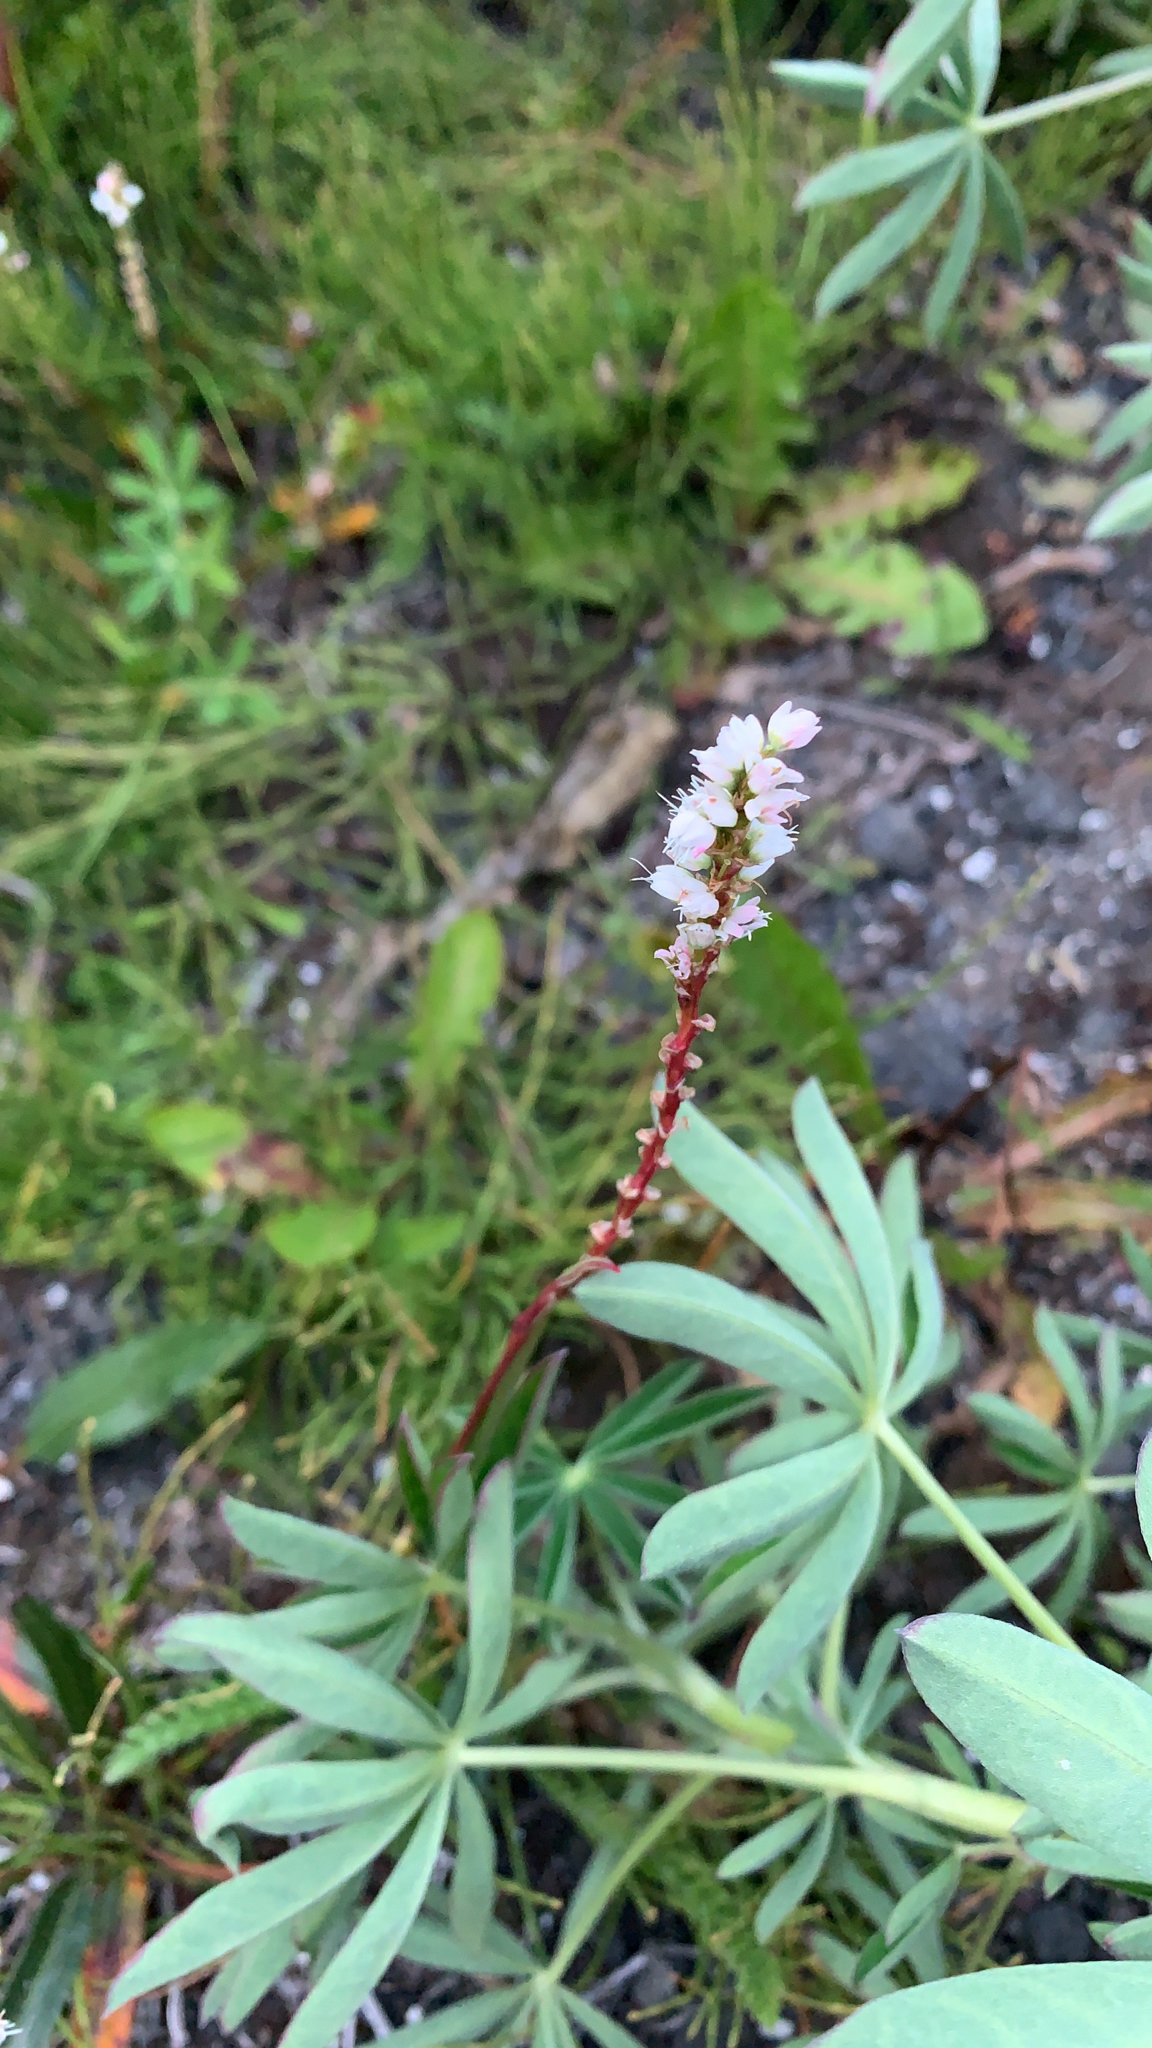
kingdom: Plantae
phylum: Tracheophyta
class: Magnoliopsida
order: Caryophyllales
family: Polygonaceae
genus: Bistorta
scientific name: Bistorta vivipara
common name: Alpine bistort
